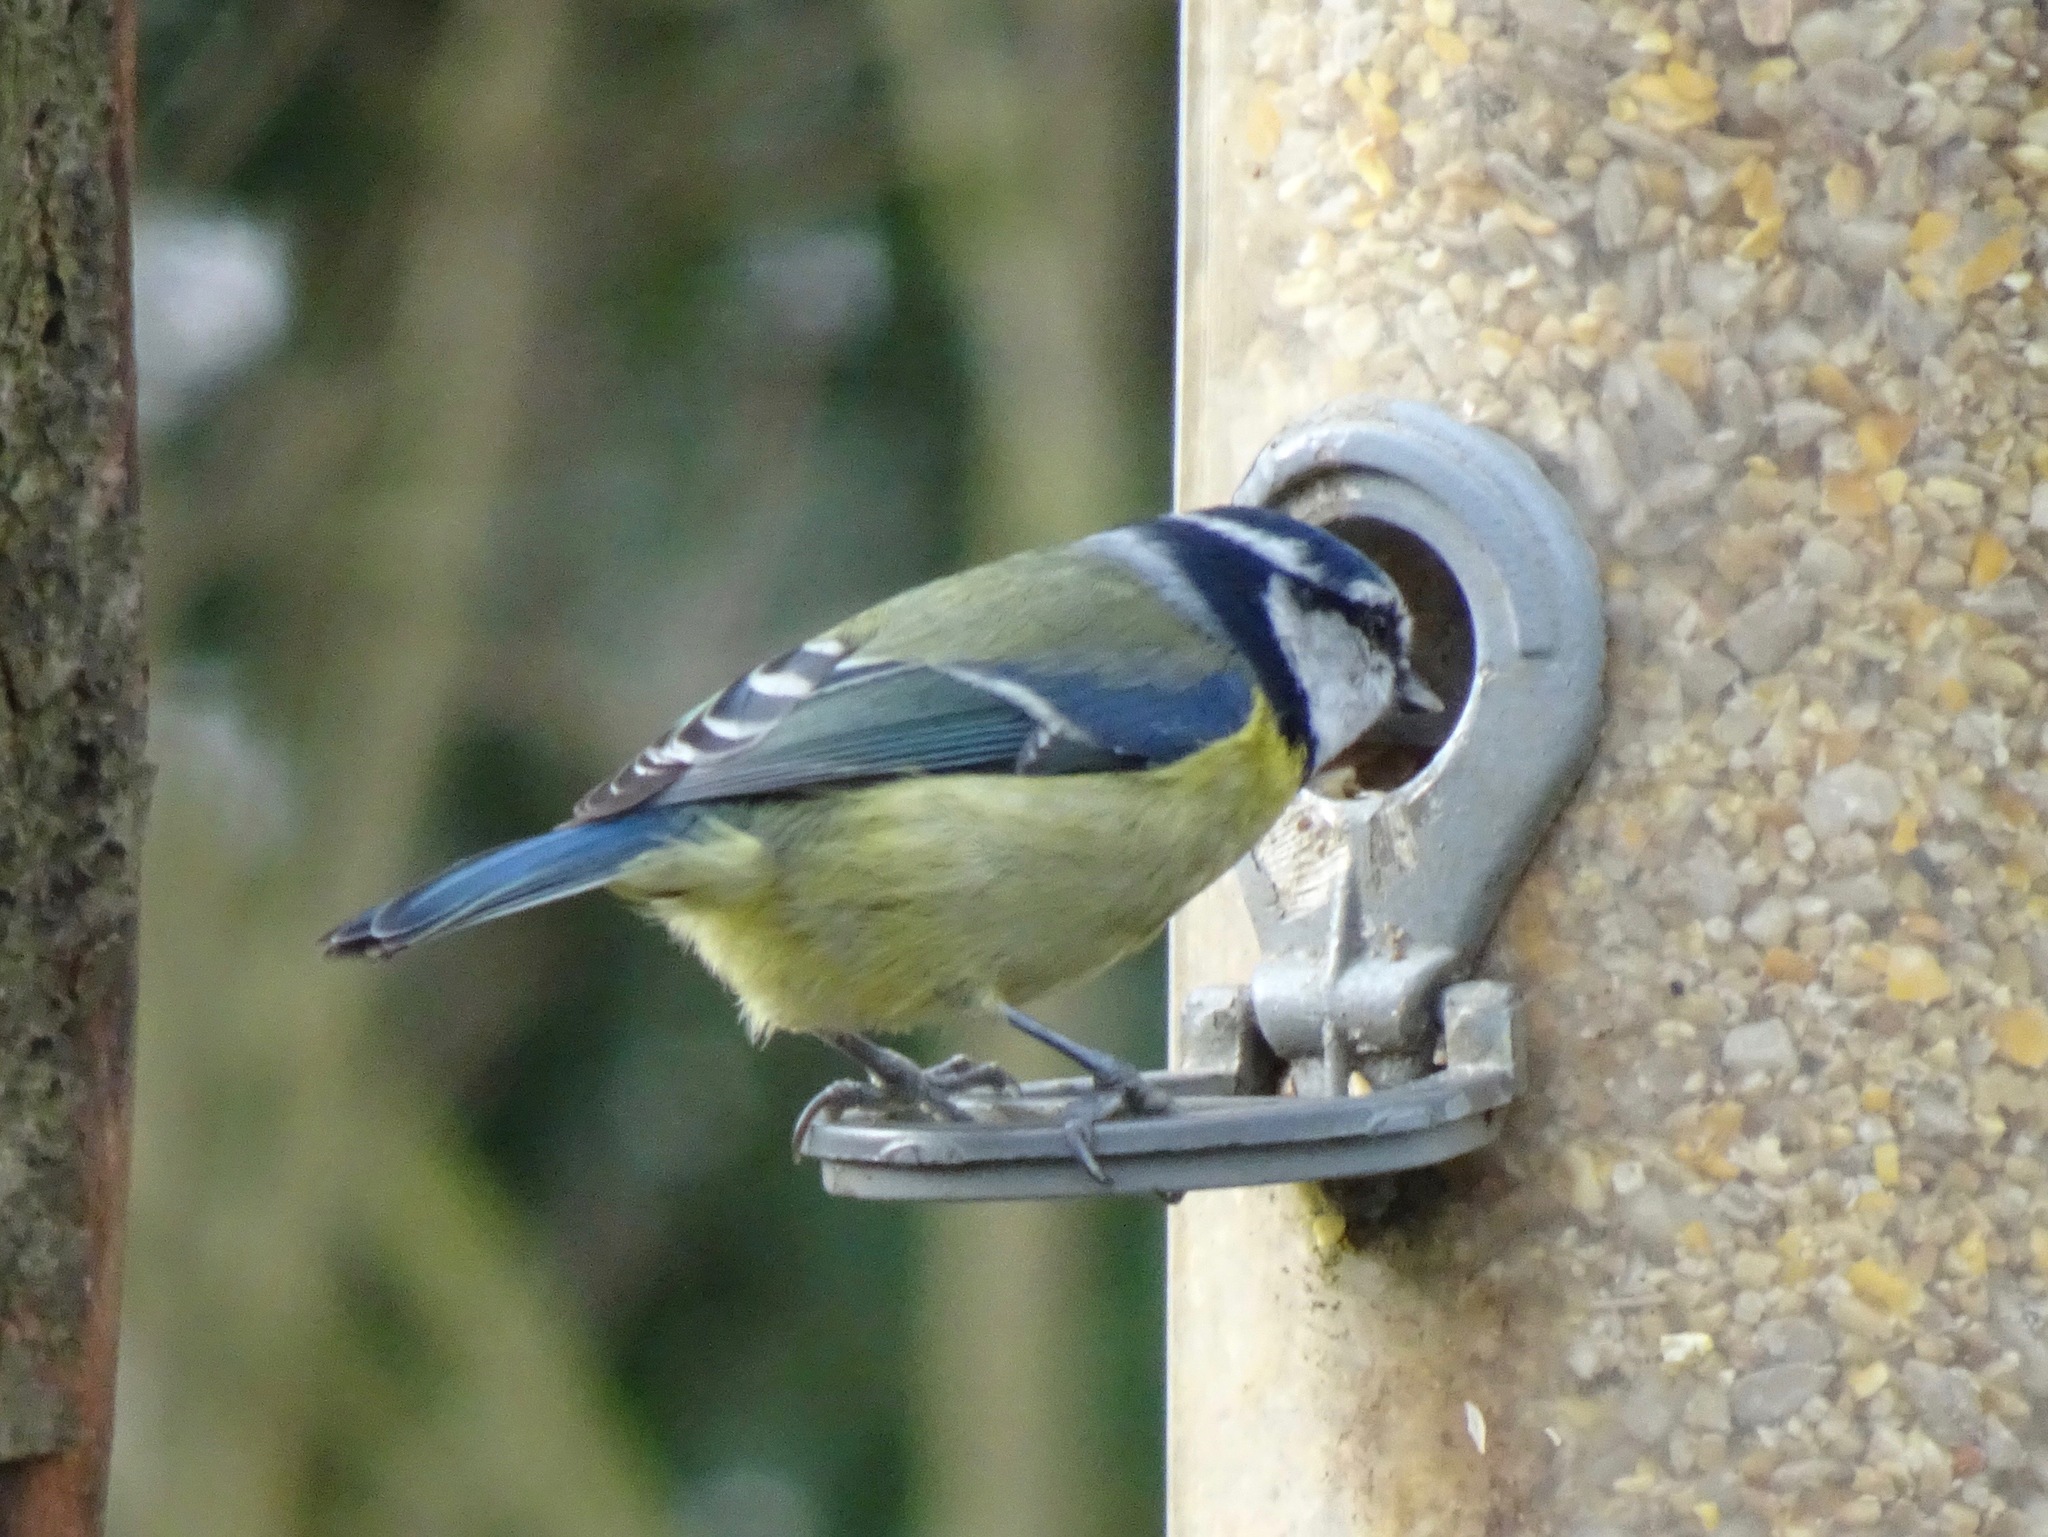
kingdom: Animalia
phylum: Chordata
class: Aves
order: Passeriformes
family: Paridae
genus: Cyanistes
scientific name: Cyanistes caeruleus
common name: Eurasian blue tit
